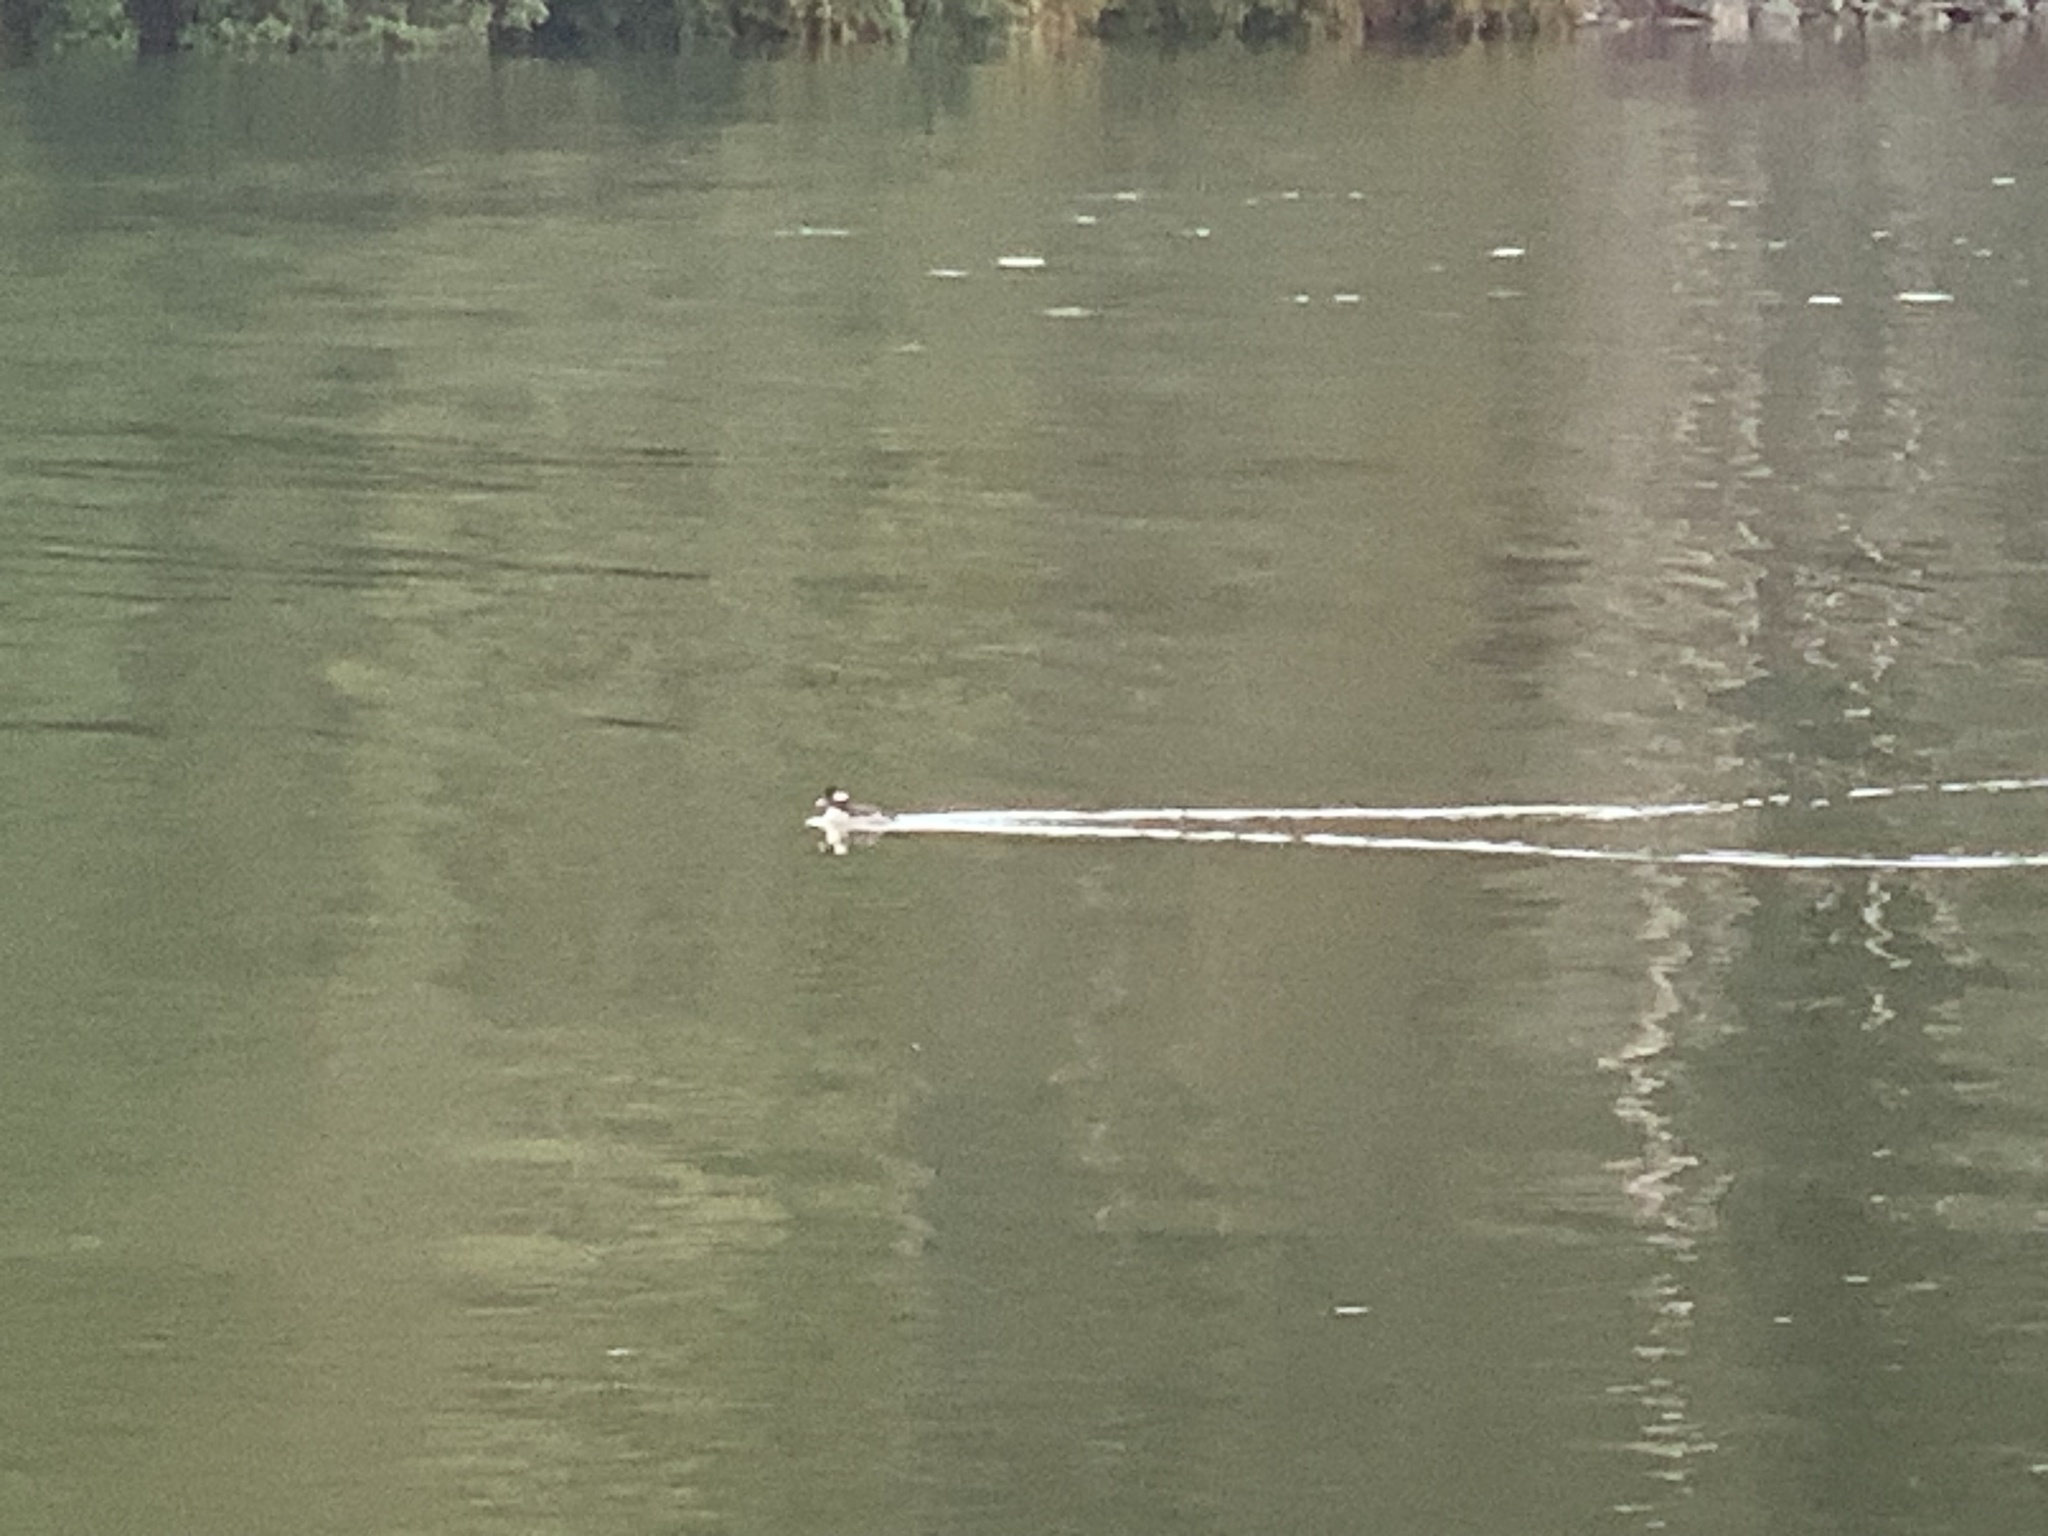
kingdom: Animalia
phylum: Chordata
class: Aves
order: Anseriformes
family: Anatidae
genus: Bucephala
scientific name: Bucephala albeola
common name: Bufflehead
